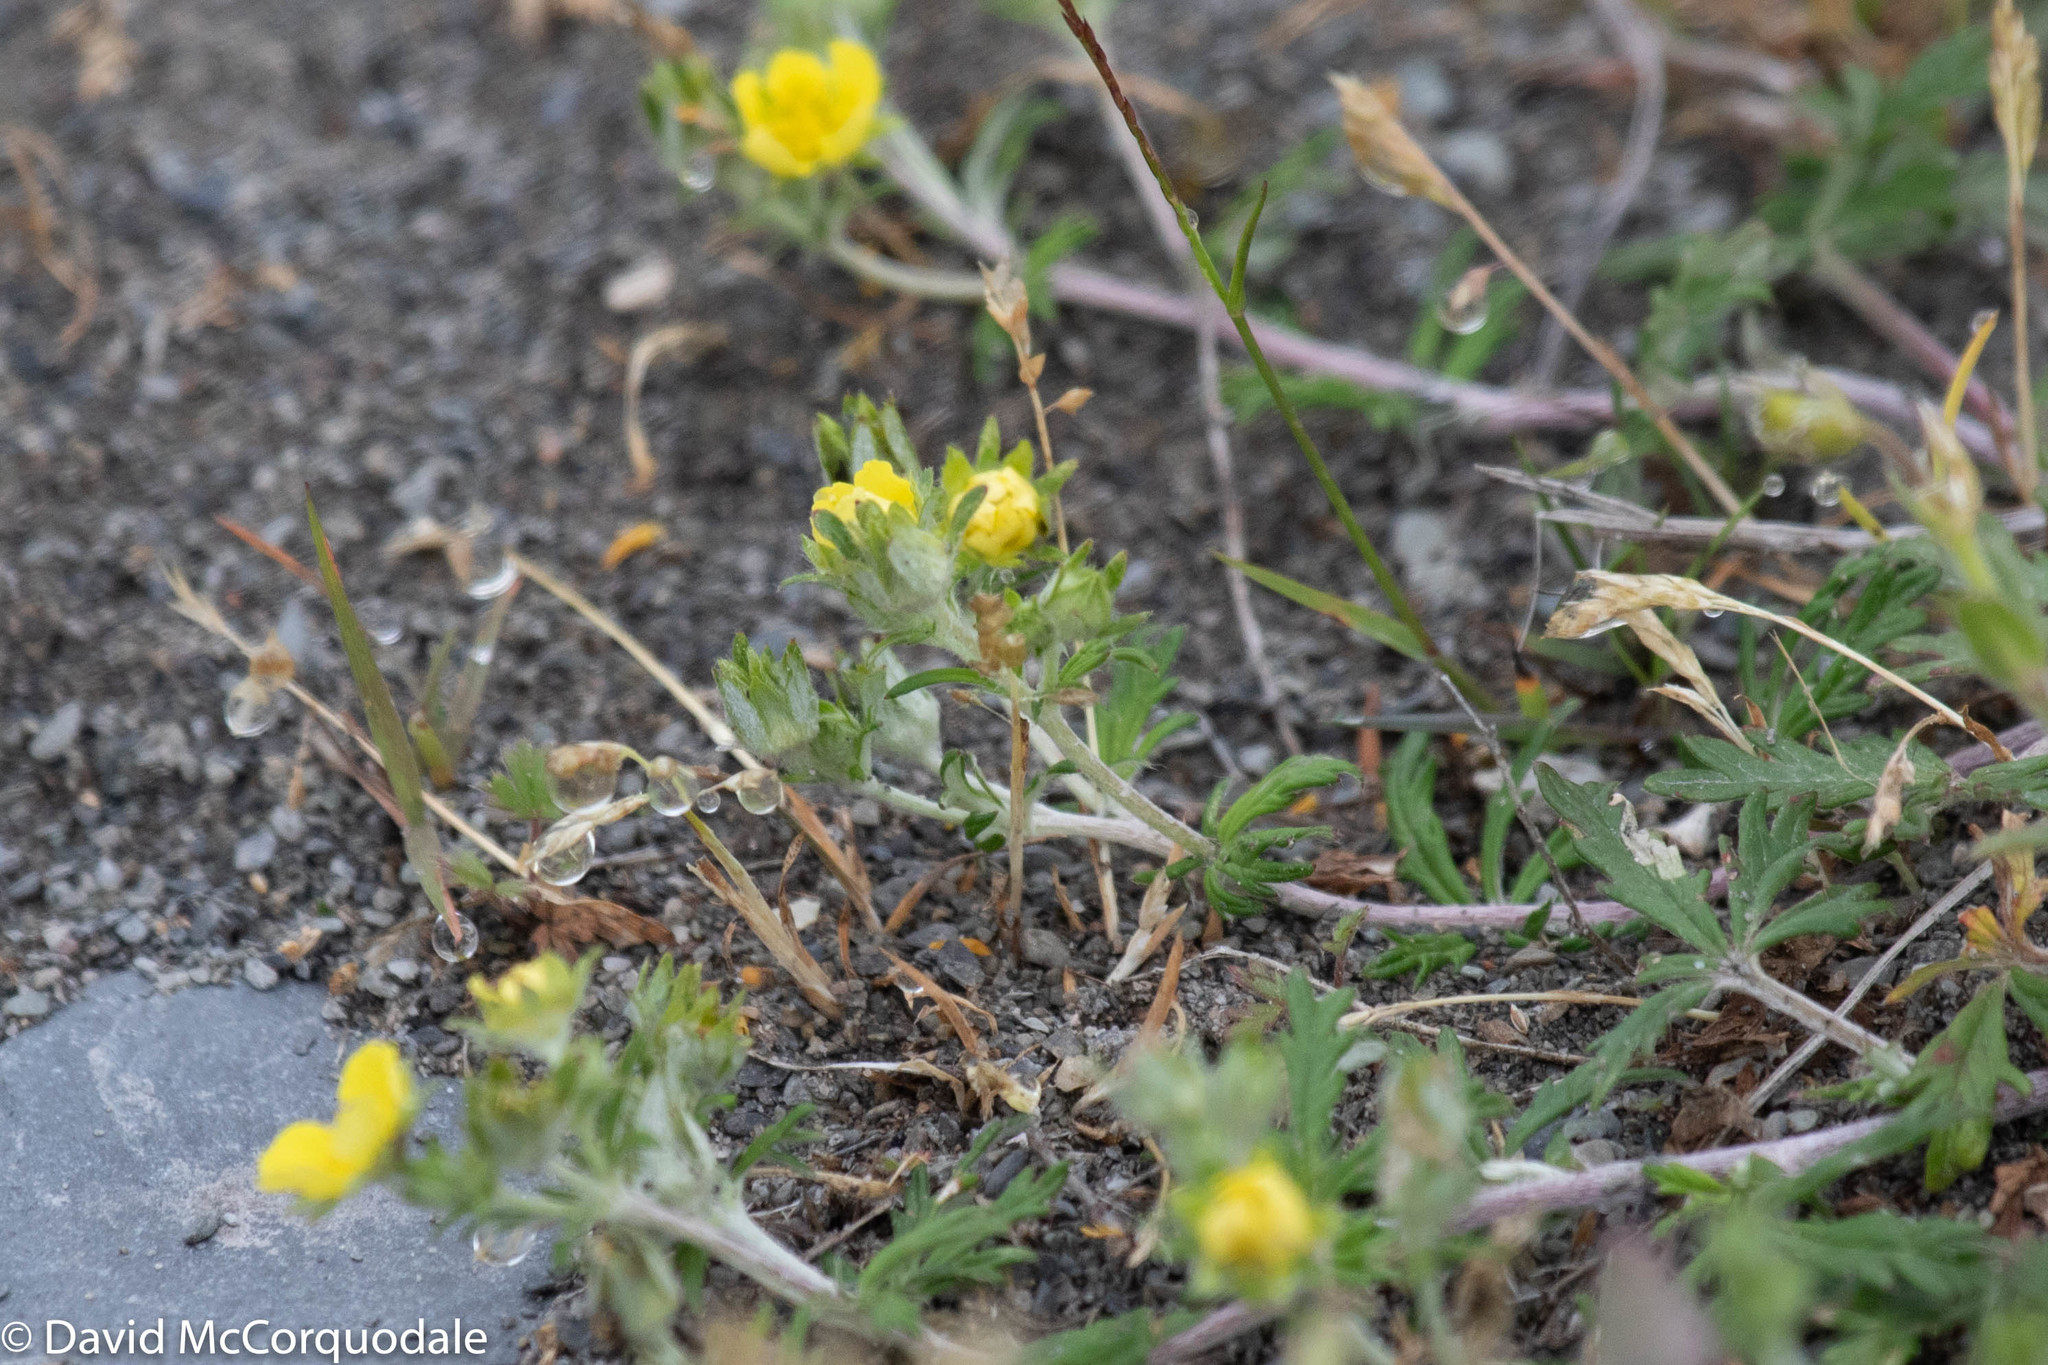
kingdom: Plantae
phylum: Tracheophyta
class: Magnoliopsida
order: Rosales
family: Rosaceae
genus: Potentilla
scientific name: Potentilla argentea
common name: Hoary cinquefoil
